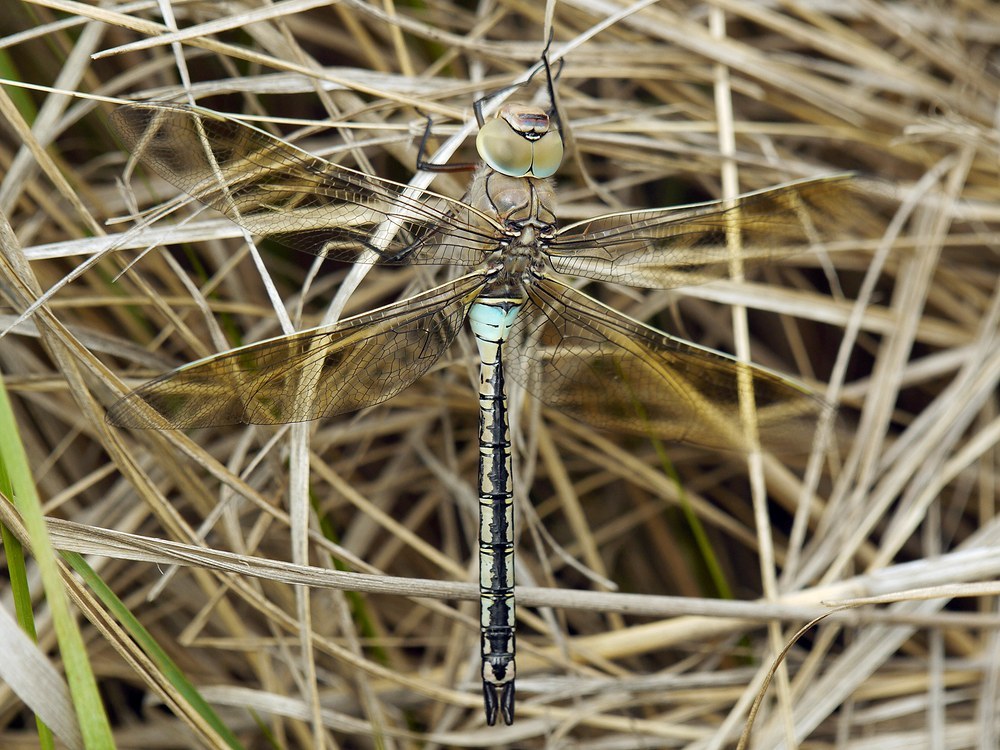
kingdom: Animalia
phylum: Arthropoda
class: Insecta
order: Odonata
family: Aeshnidae
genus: Anax
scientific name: Anax parthenope
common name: Lesser emperor
